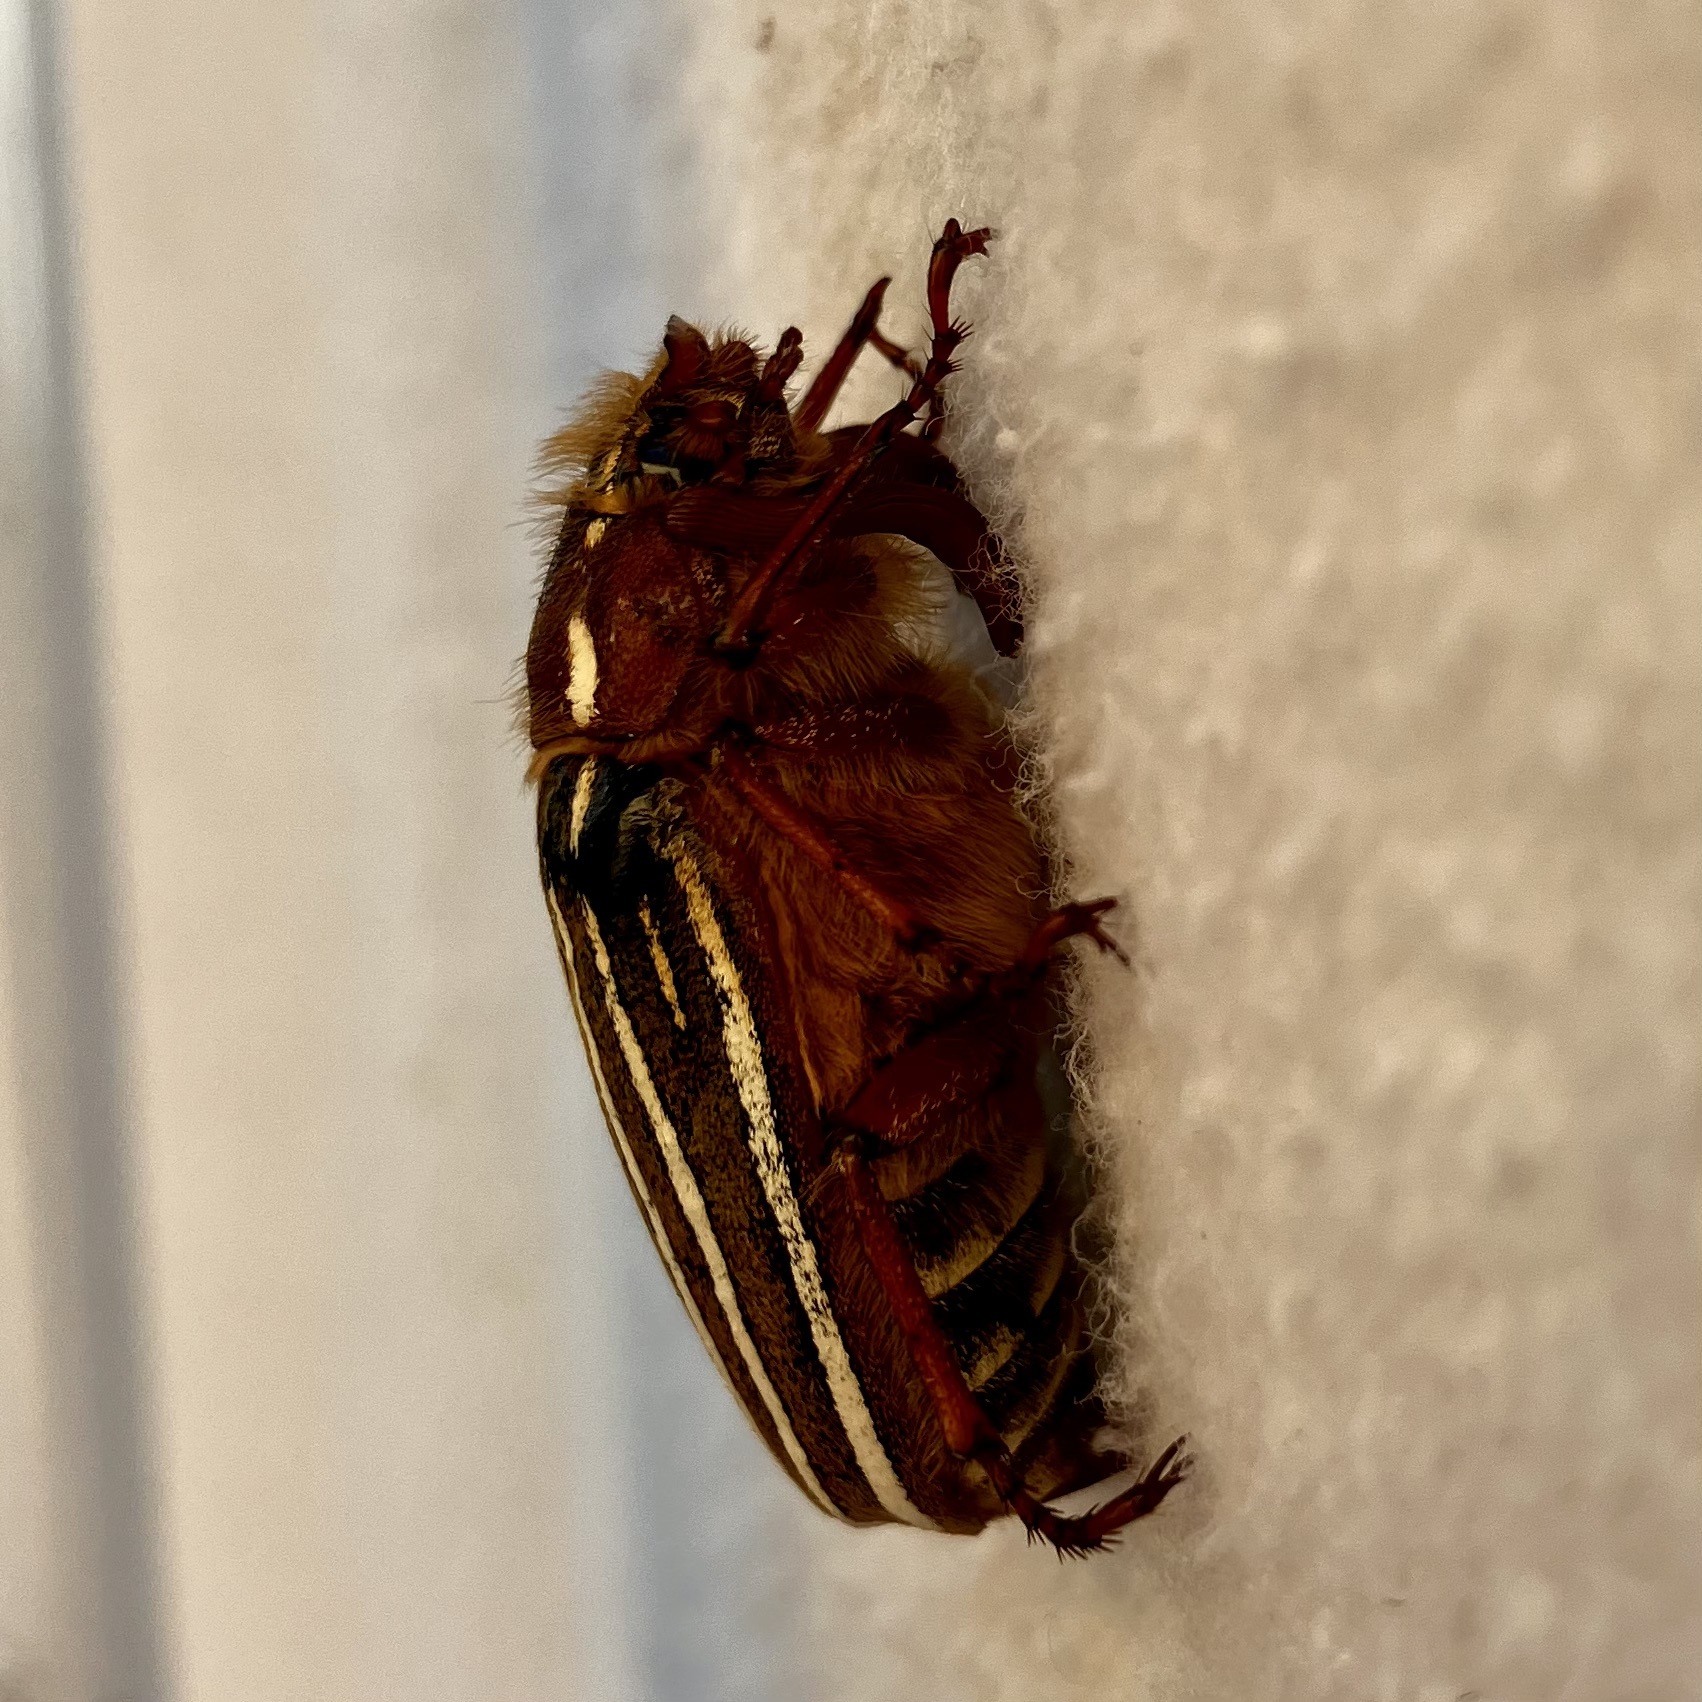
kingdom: Animalia
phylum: Arthropoda
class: Insecta
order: Coleoptera
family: Scarabaeidae
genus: Polyphylla
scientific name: Polyphylla crinita
